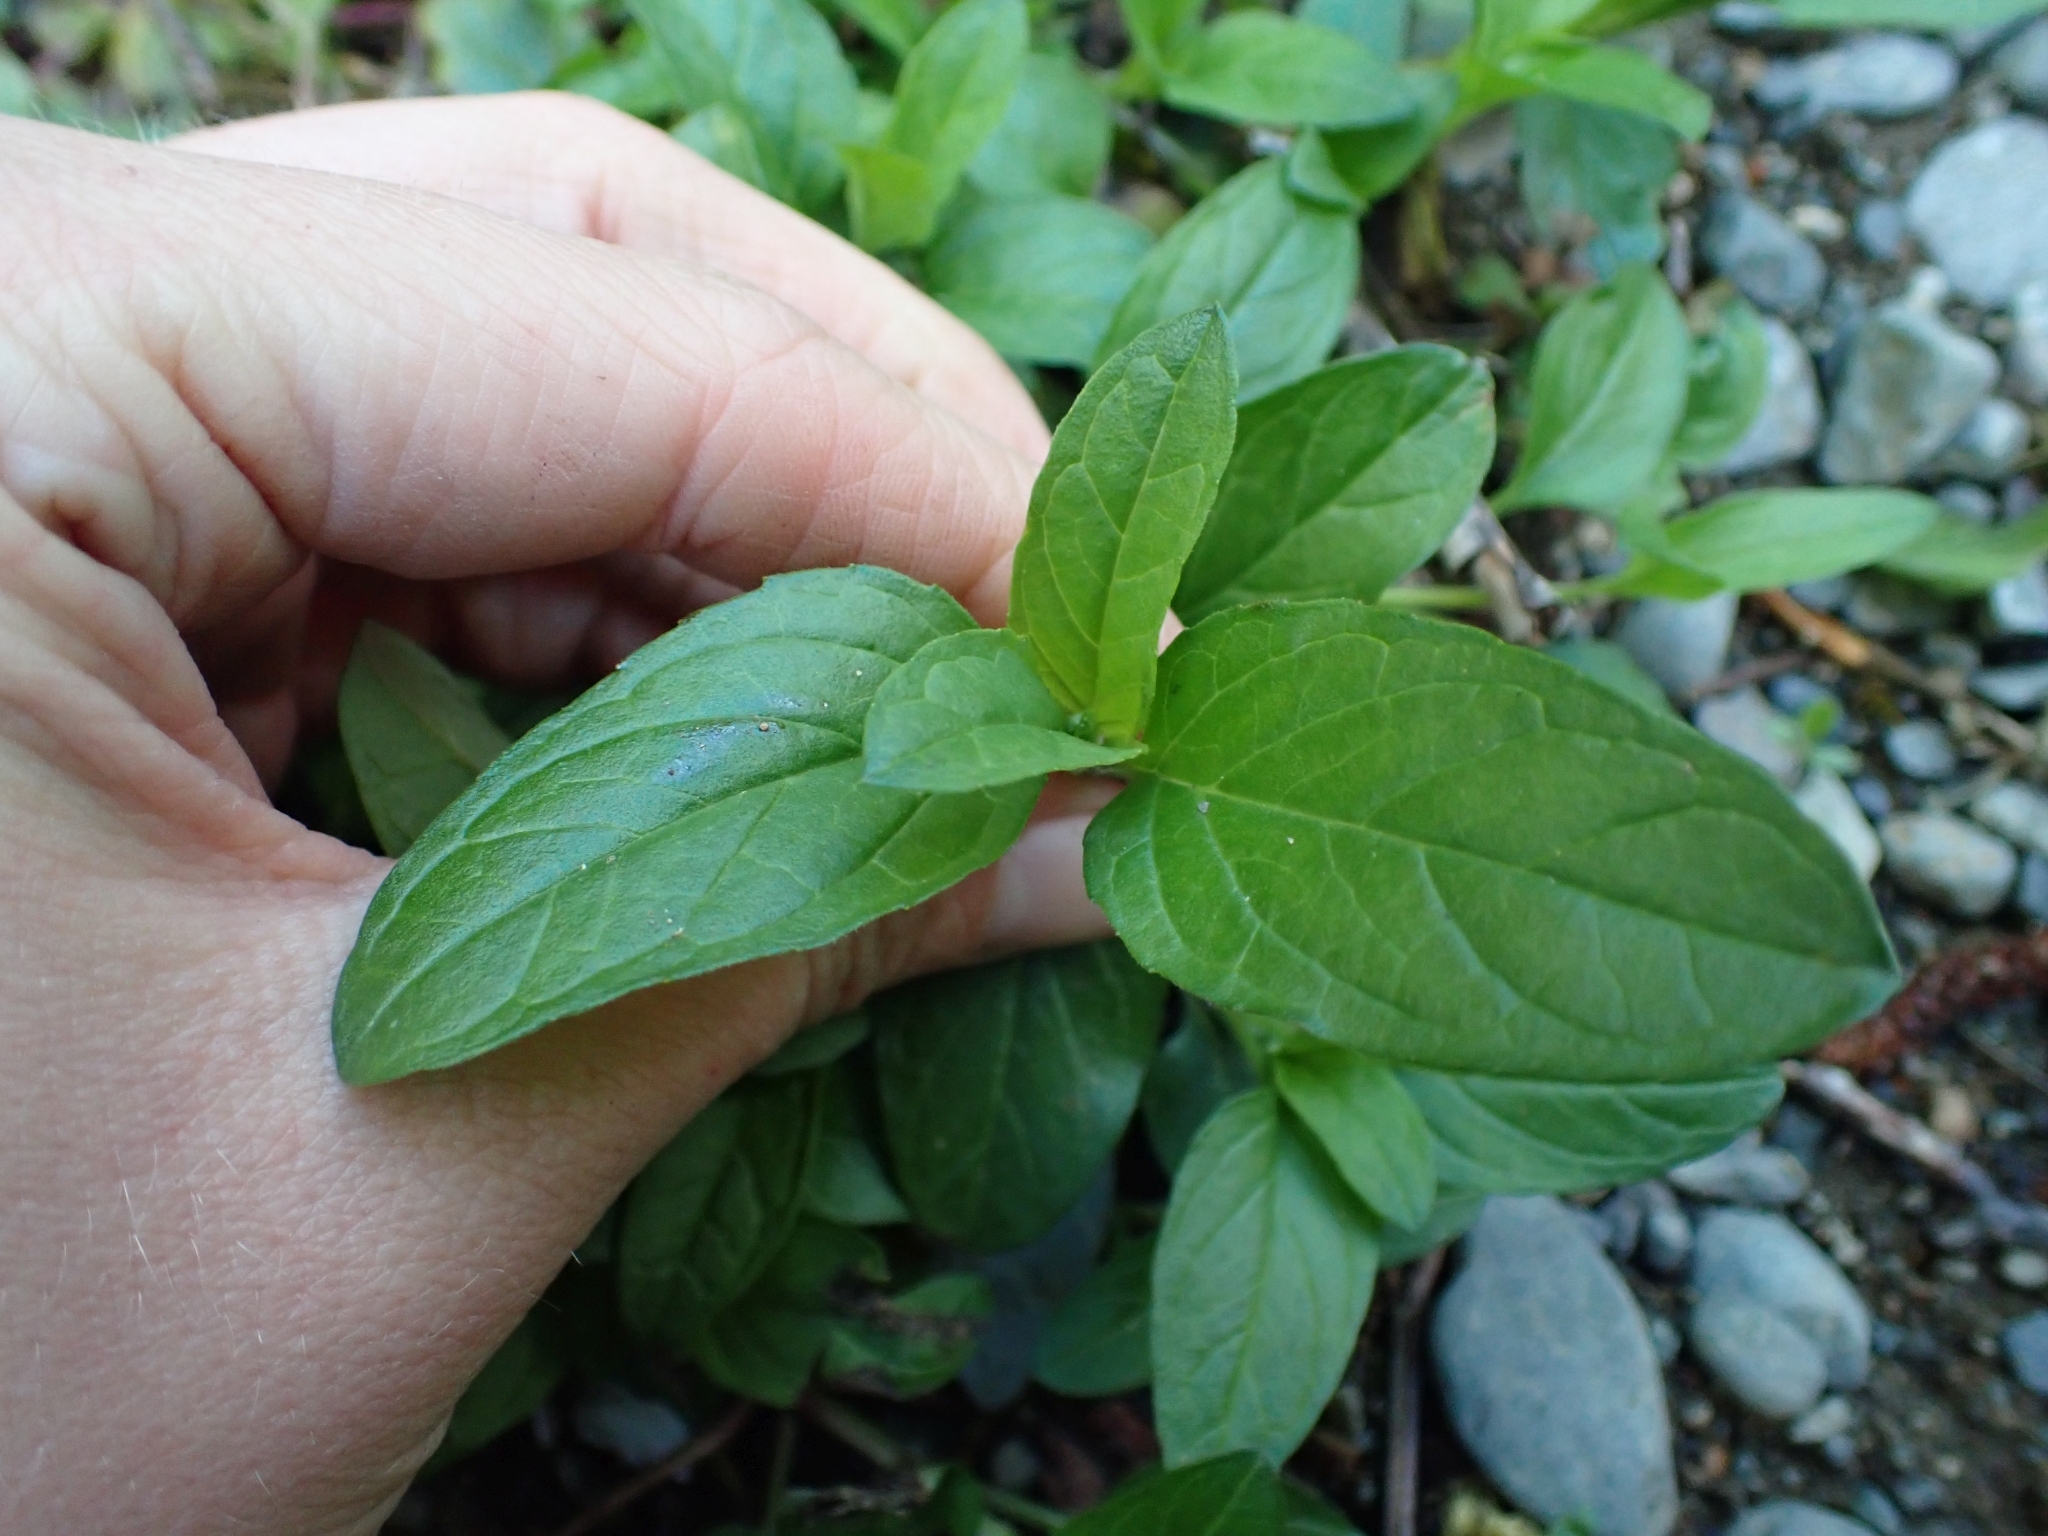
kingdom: Plantae
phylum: Tracheophyta
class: Magnoliopsida
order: Lamiales
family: Lamiaceae
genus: Prunella
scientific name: Prunella vulgaris
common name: Heal-all
